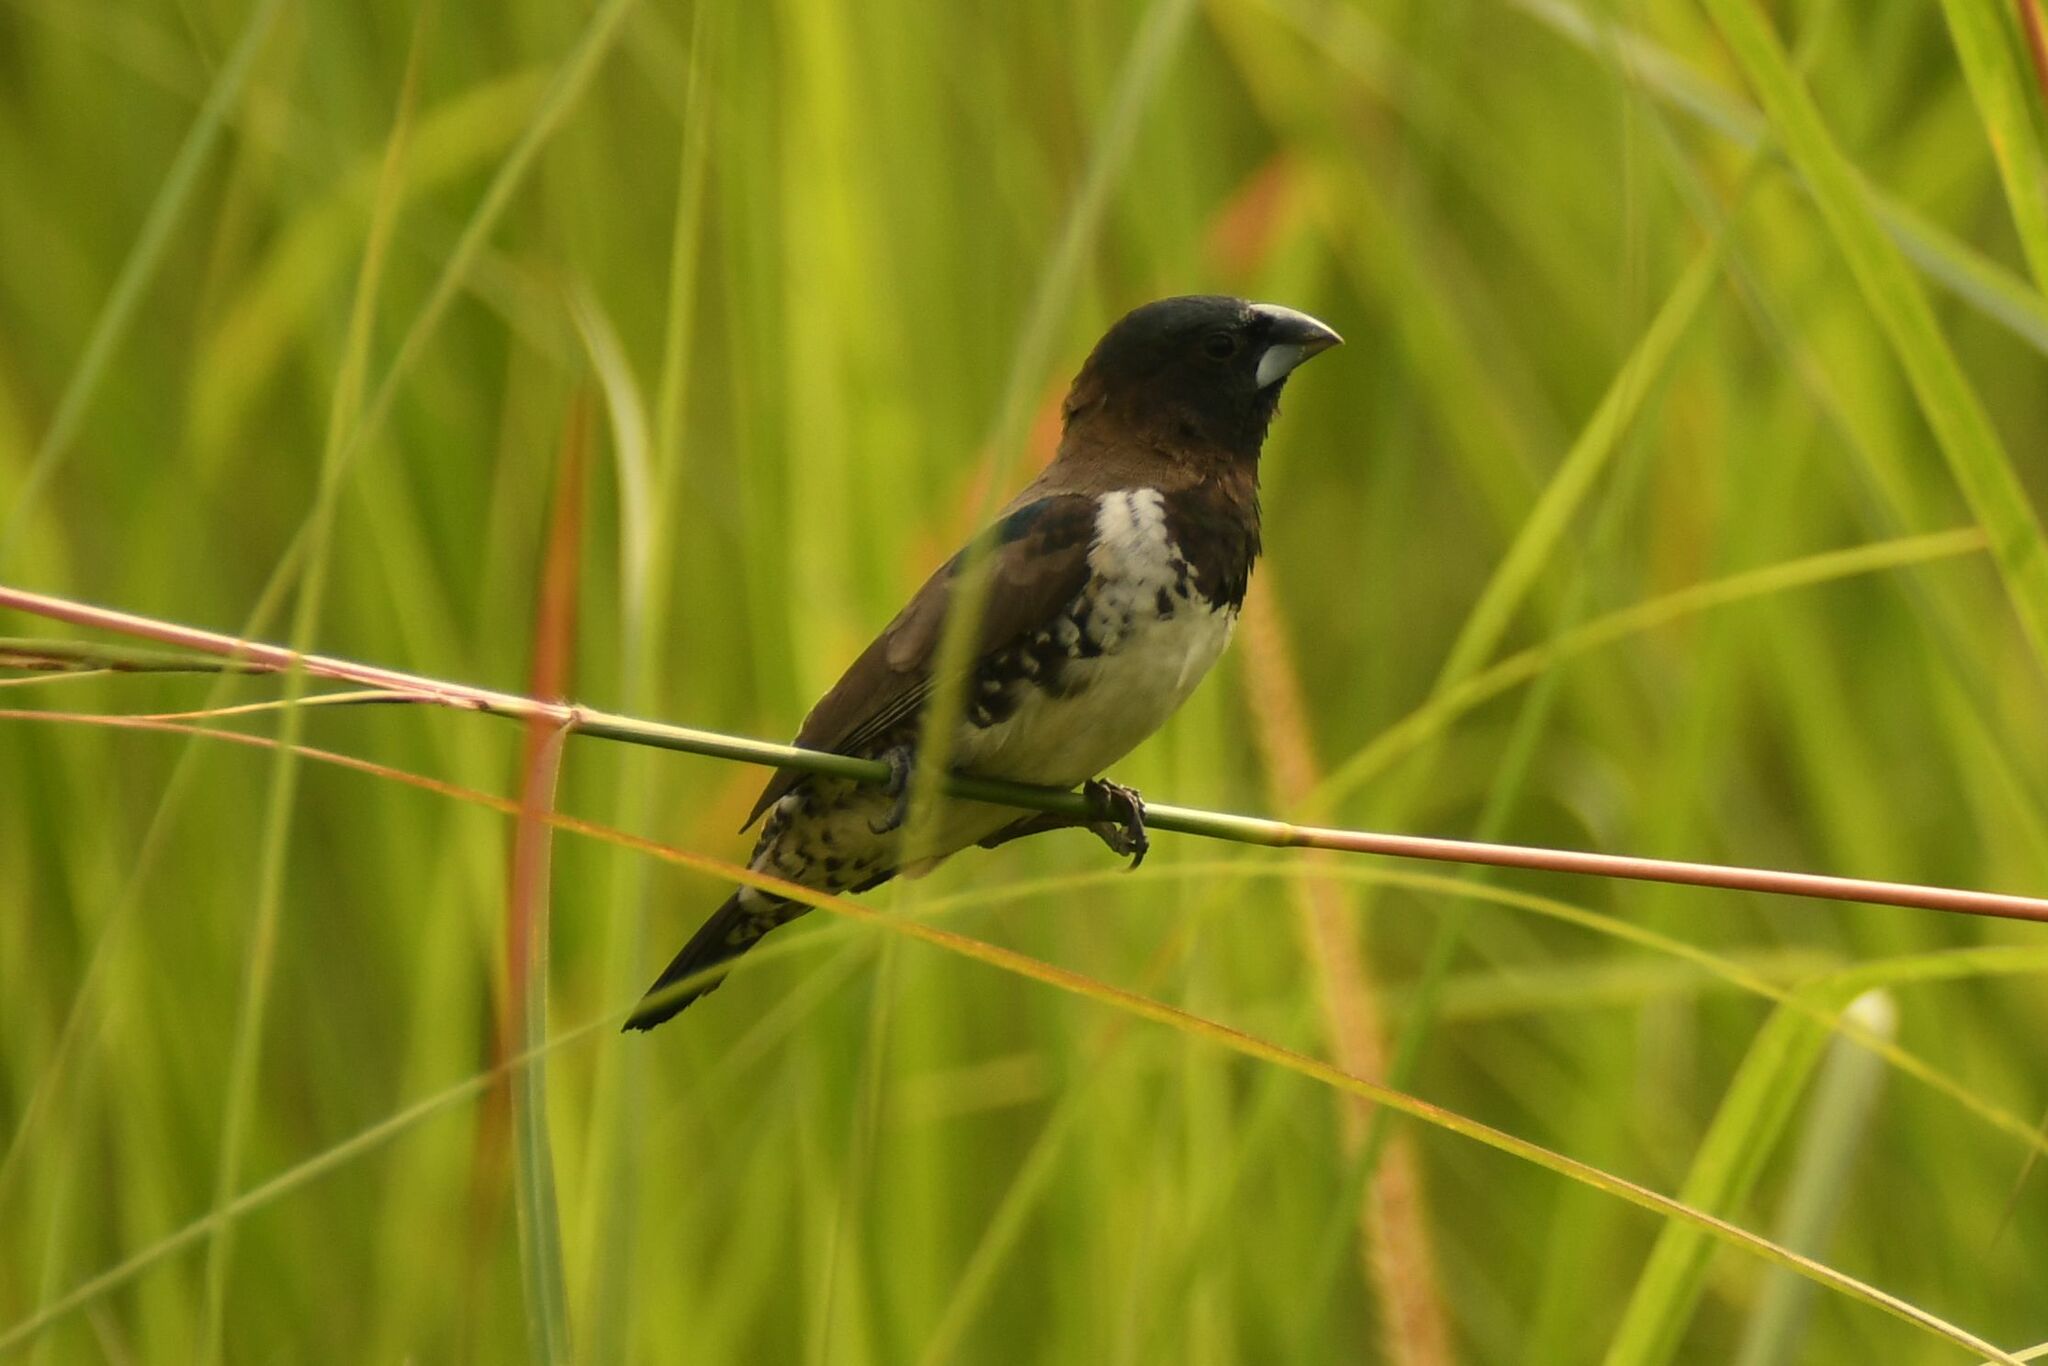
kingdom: Animalia
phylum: Chordata
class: Aves
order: Passeriformes
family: Estrildidae
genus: Lonchura
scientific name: Lonchura cucullata
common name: Bronze mannikin
